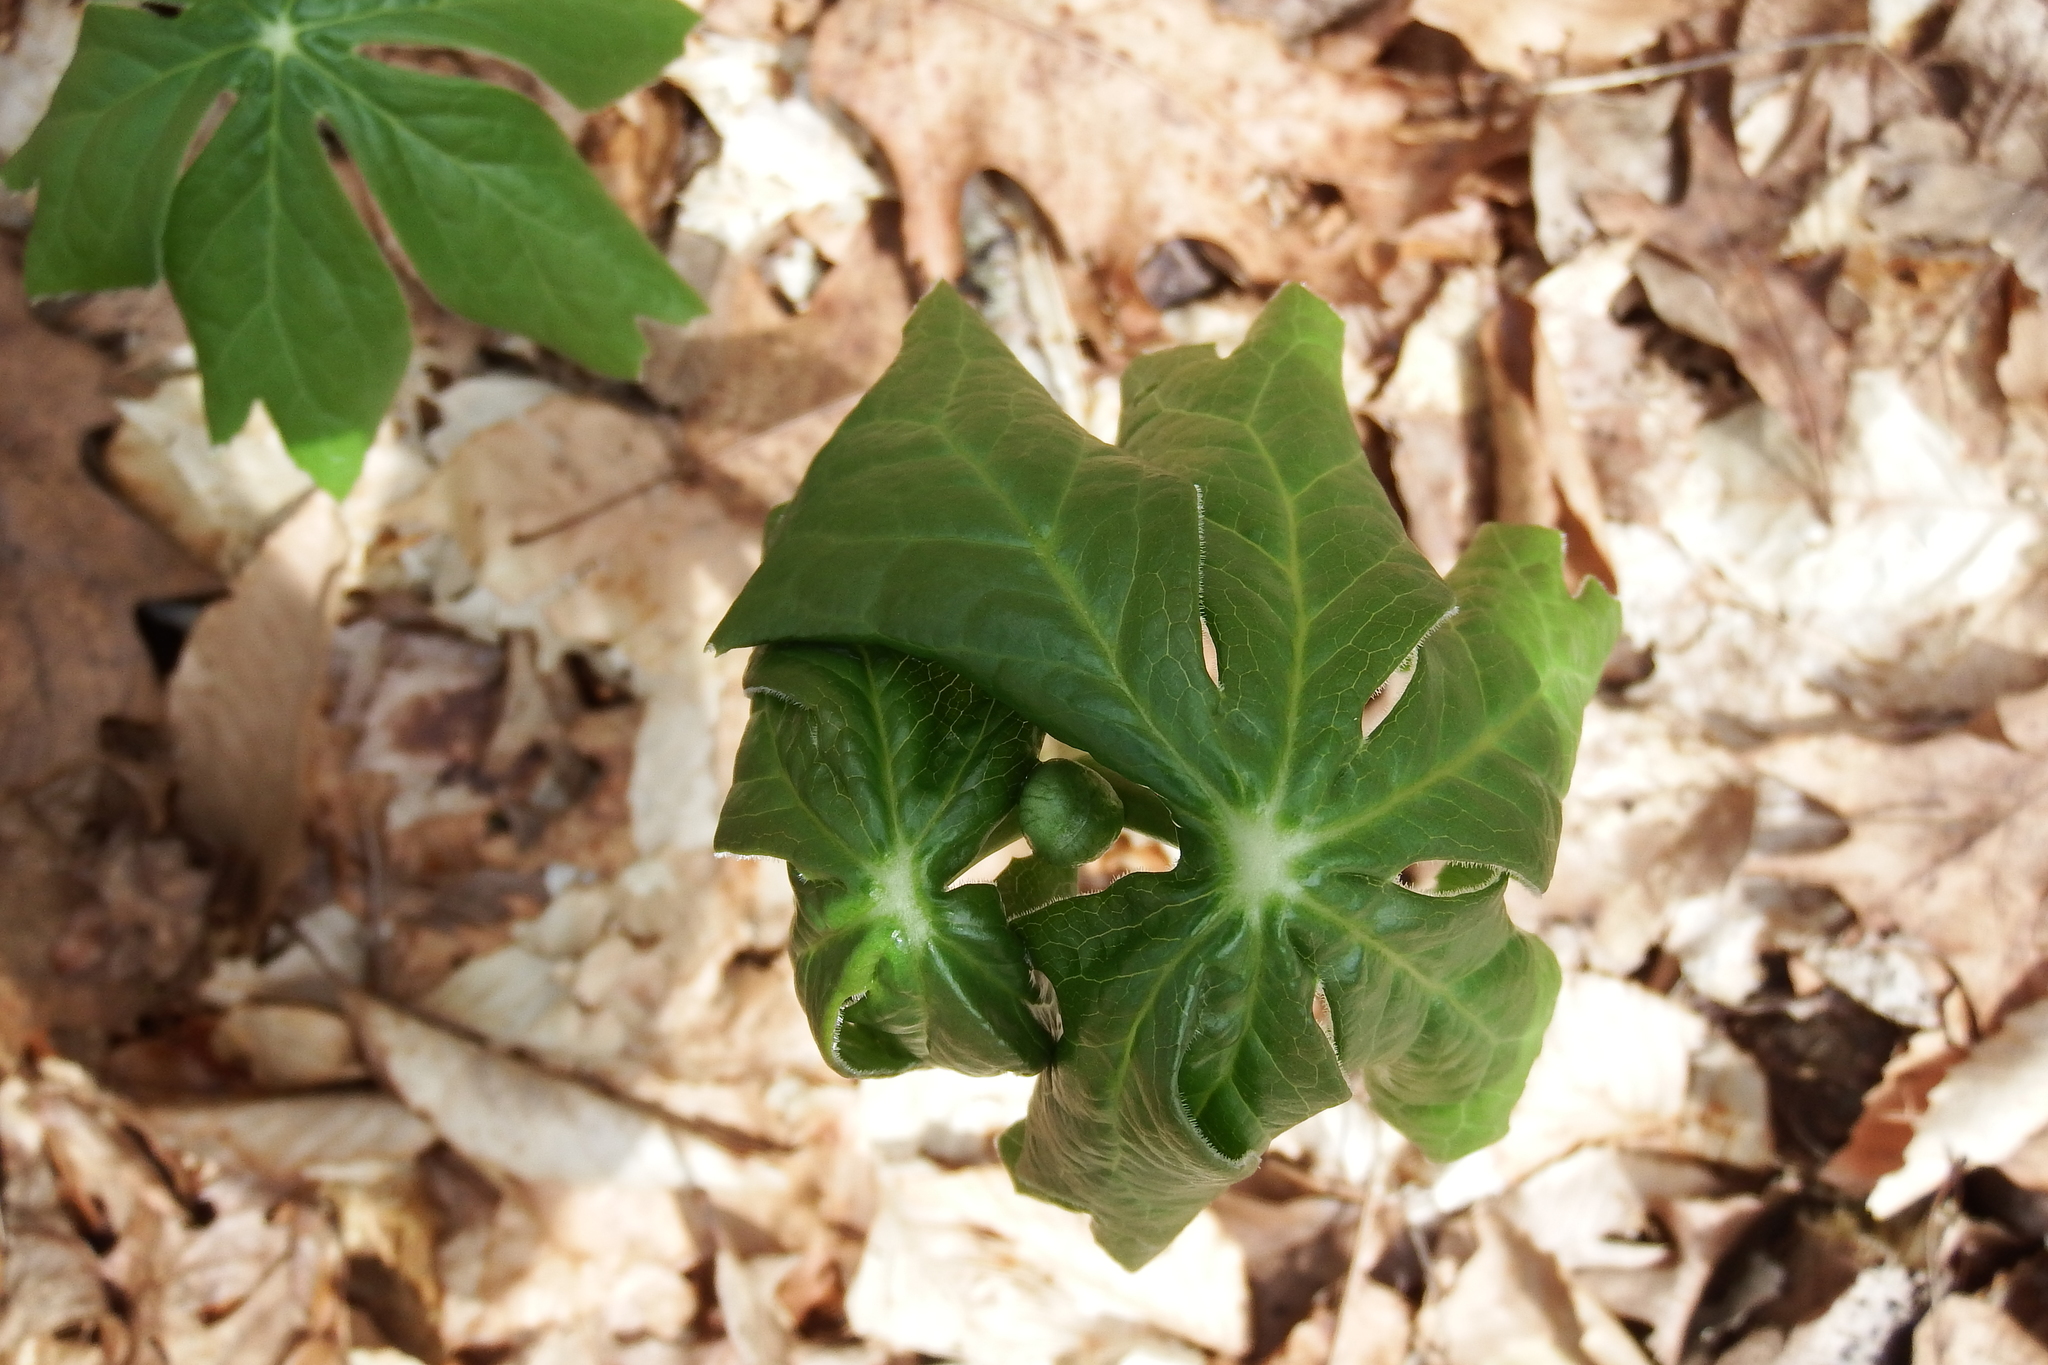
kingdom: Plantae
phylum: Tracheophyta
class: Magnoliopsida
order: Ranunculales
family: Berberidaceae
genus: Podophyllum
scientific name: Podophyllum peltatum
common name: Wild mandrake
